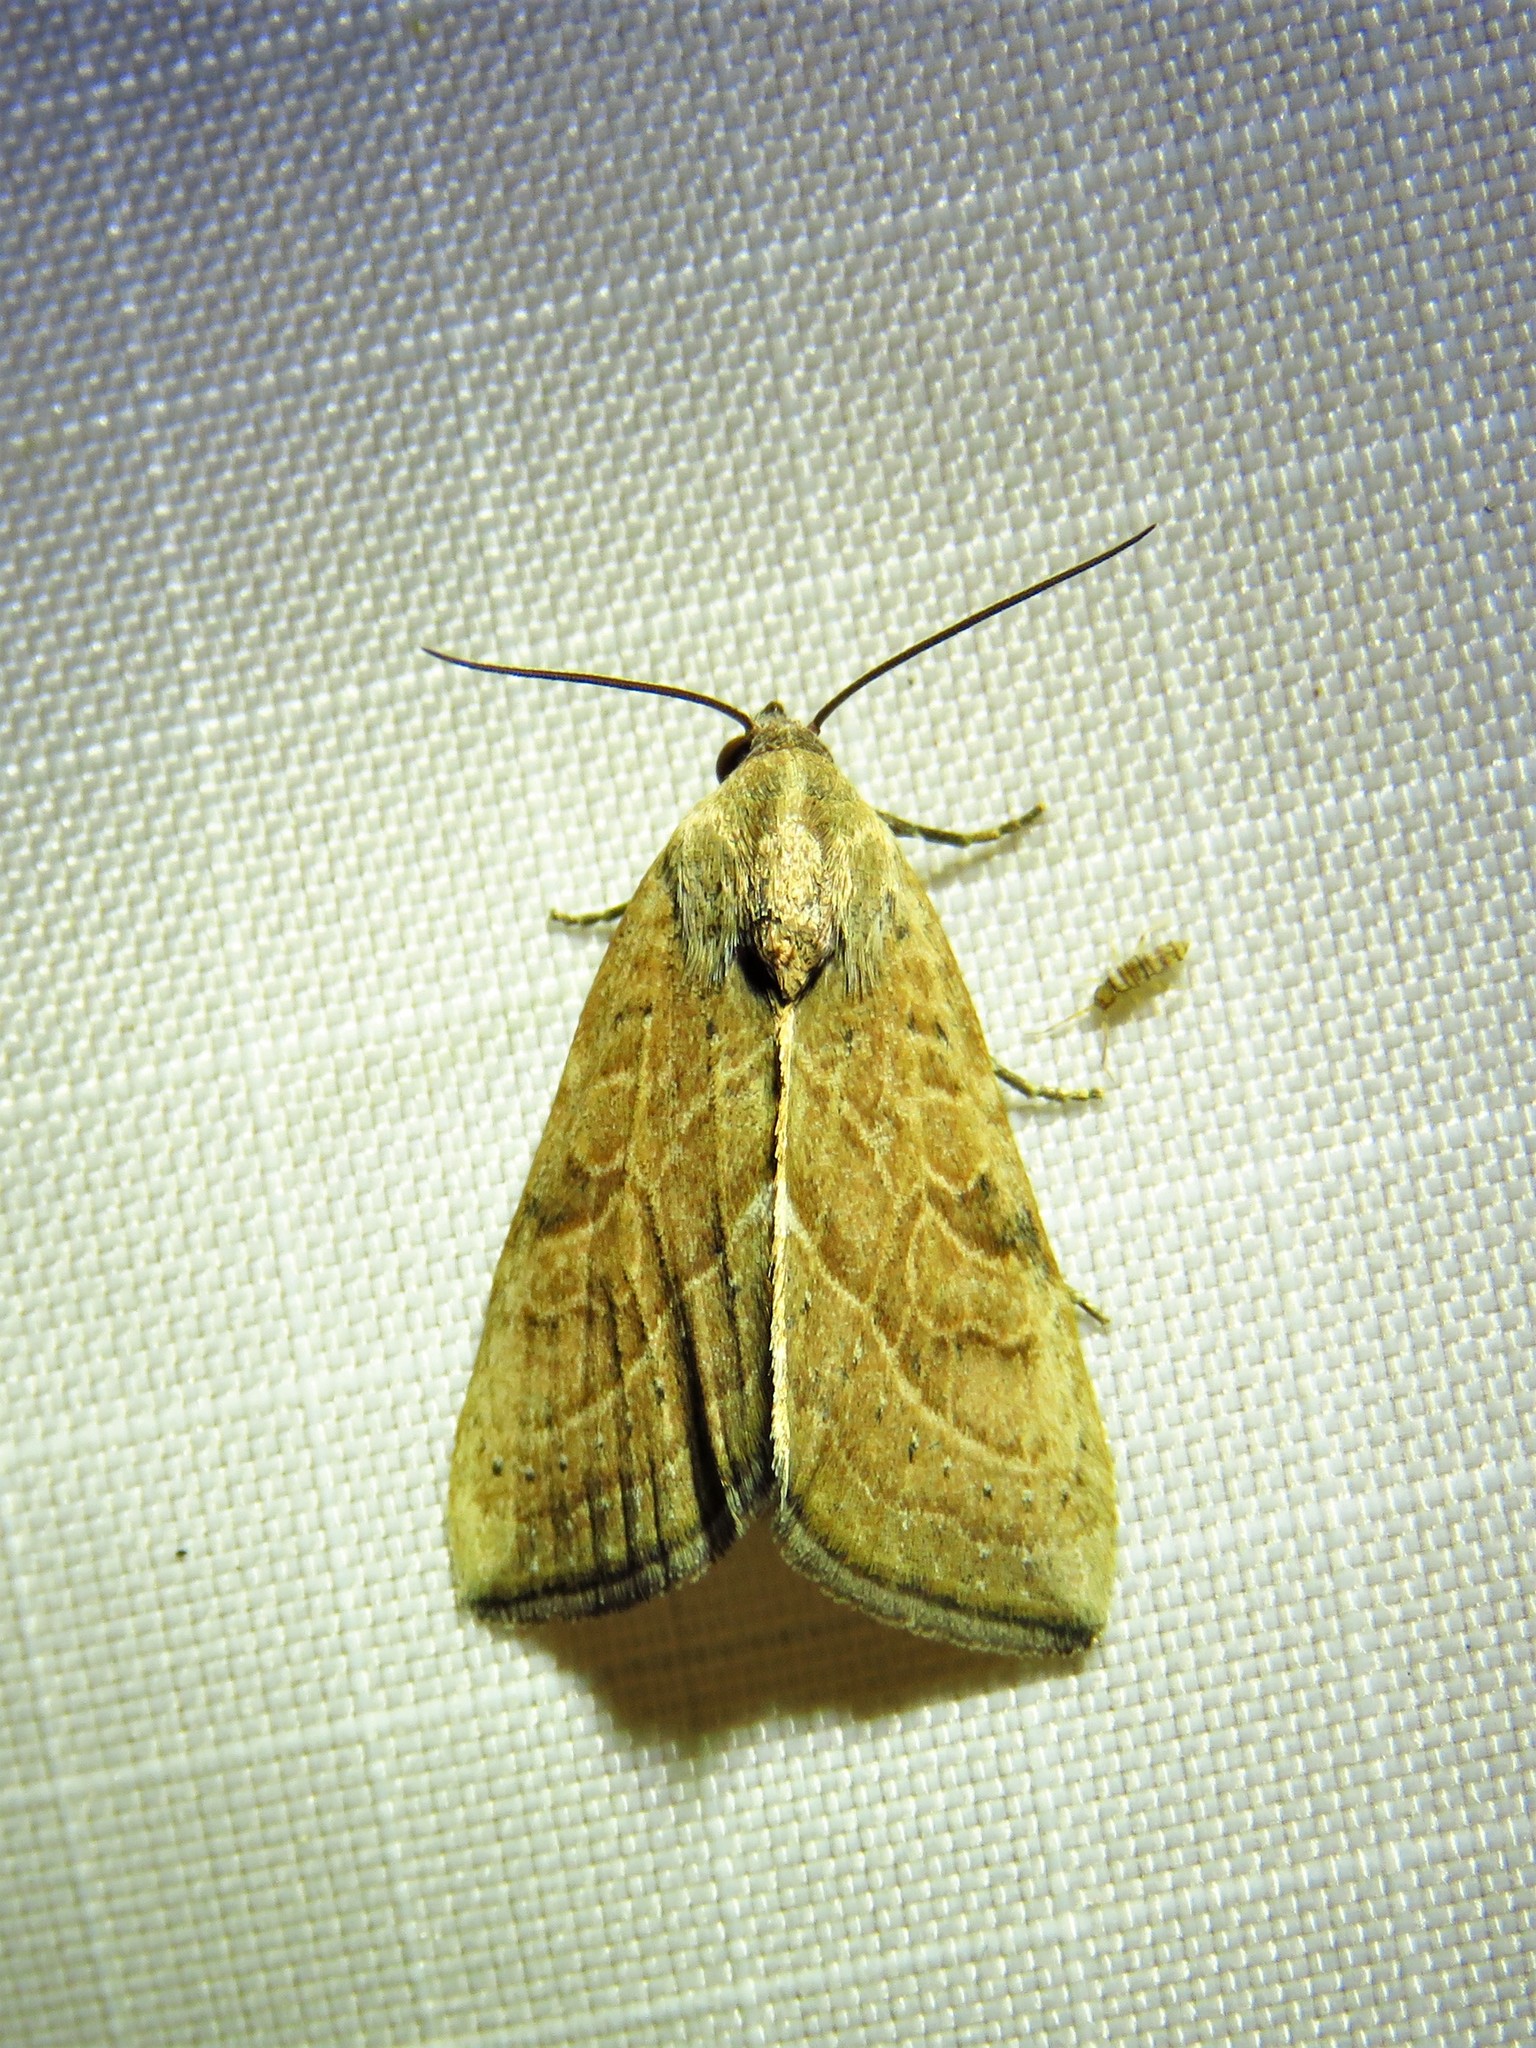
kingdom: Animalia
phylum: Arthropoda
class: Insecta
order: Lepidoptera
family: Noctuidae
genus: Galgula
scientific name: Galgula partita
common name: Wedgeling
